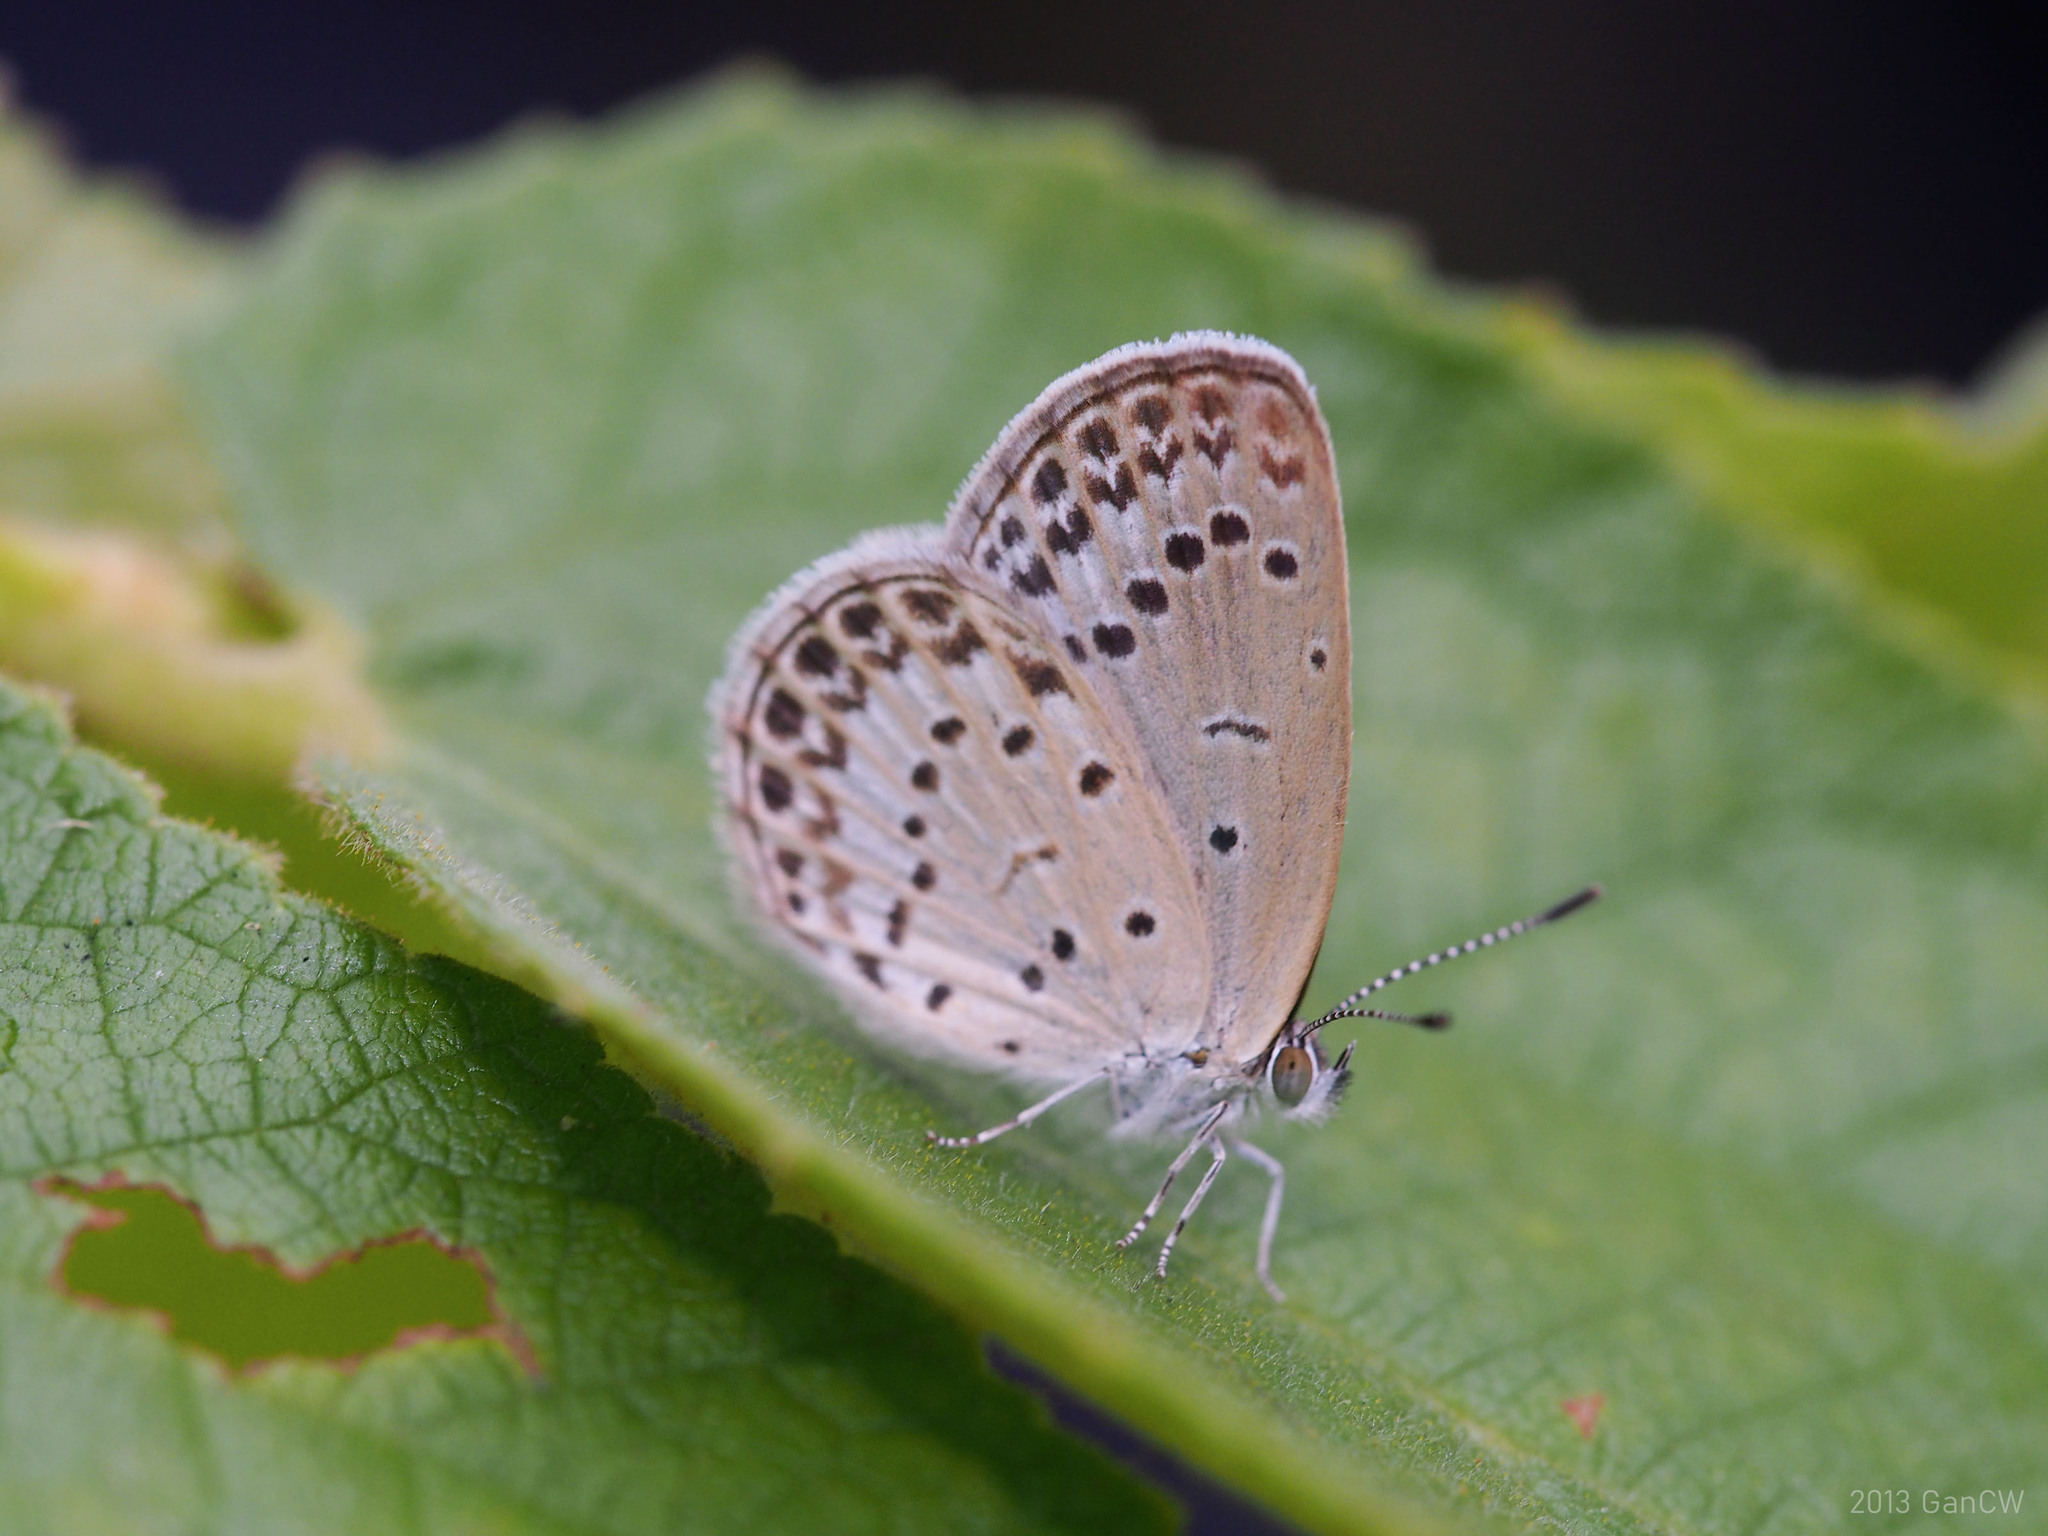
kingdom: Animalia
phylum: Arthropoda
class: Insecta
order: Lepidoptera
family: Lycaenidae
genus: Pseudozizeeria
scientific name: Pseudozizeeria maha
